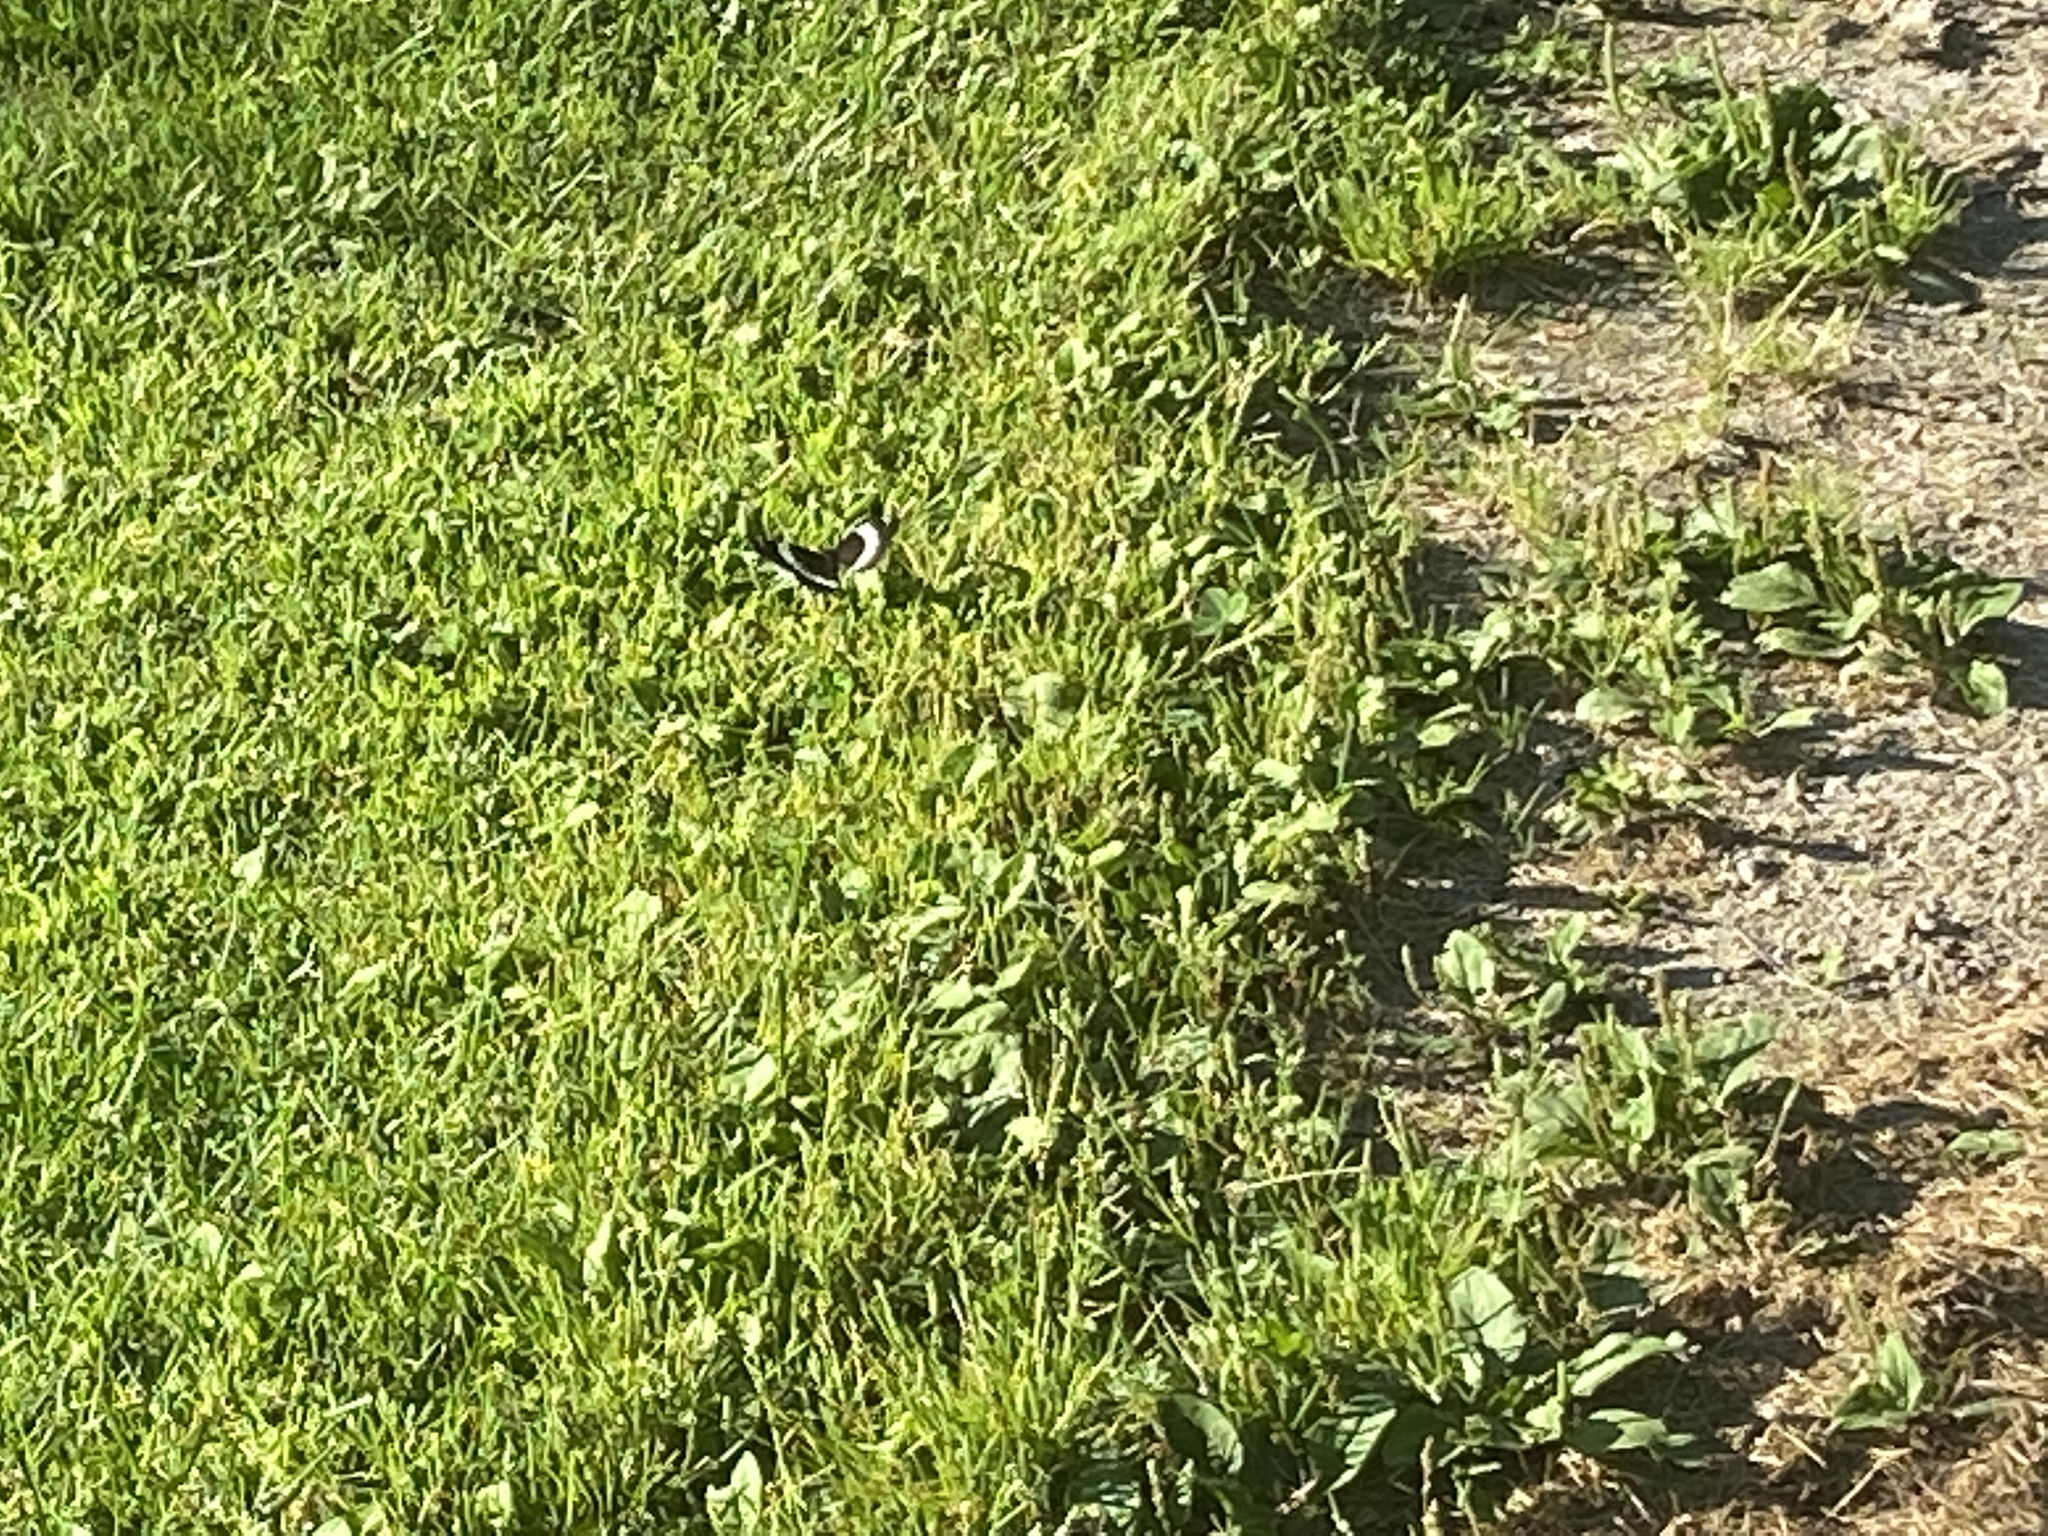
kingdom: Animalia
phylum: Arthropoda
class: Insecta
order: Lepidoptera
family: Nymphalidae
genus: Limenitis
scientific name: Limenitis arthemis
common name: Red-spotted admiral
